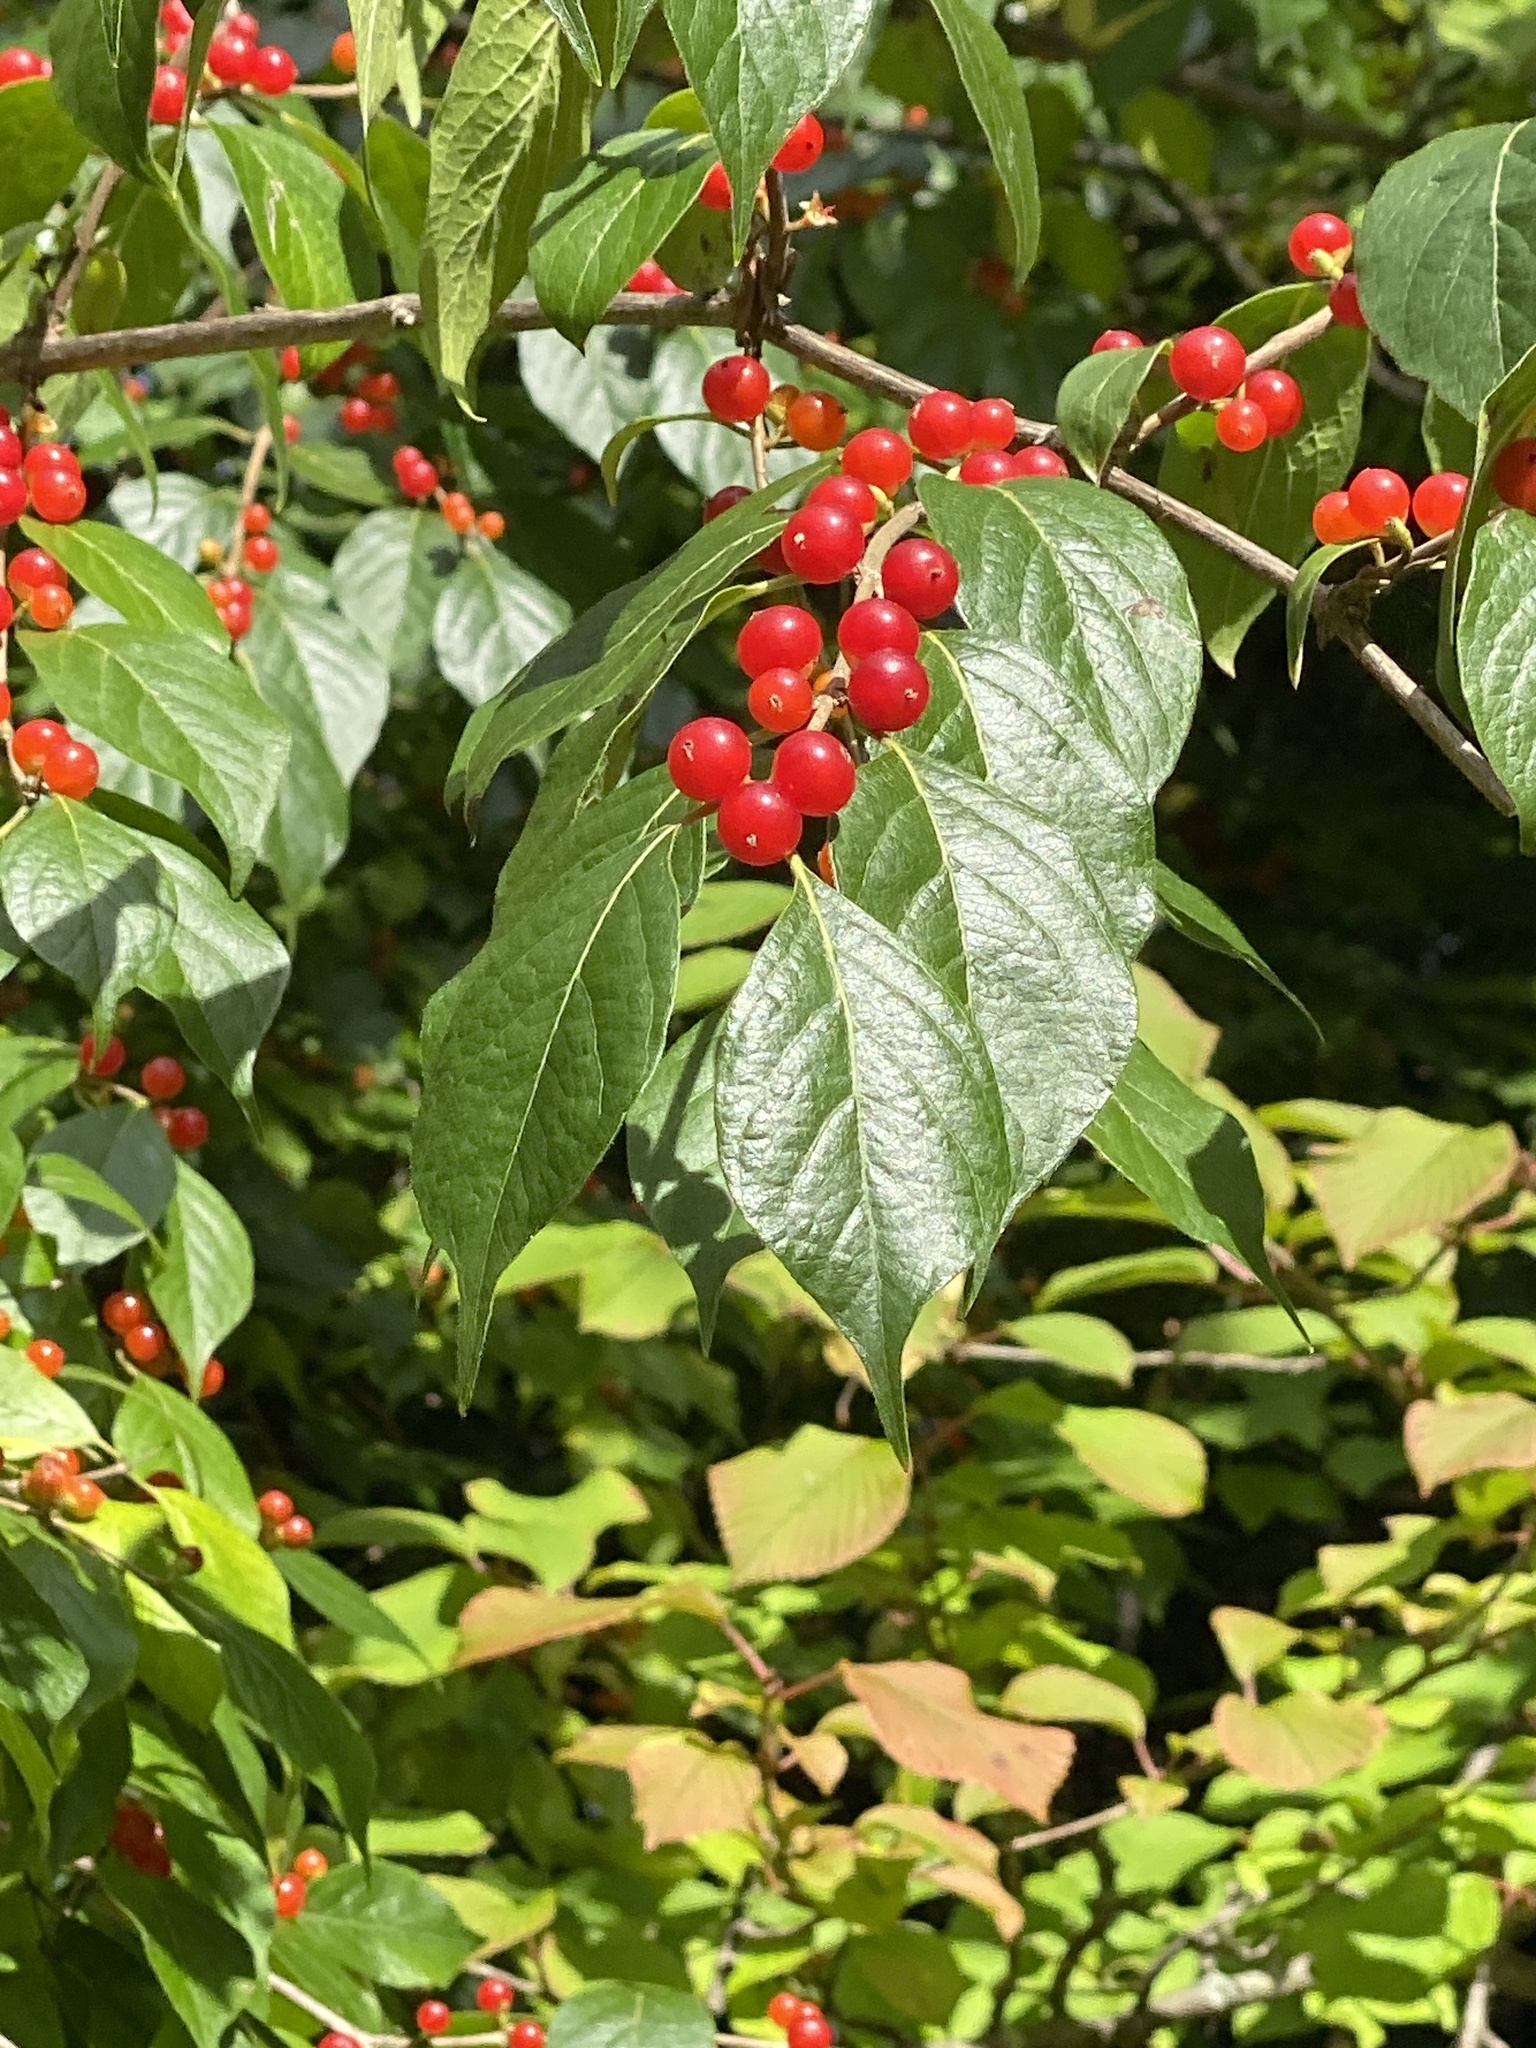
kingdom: Plantae
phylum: Tracheophyta
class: Magnoliopsida
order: Dipsacales
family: Caprifoliaceae
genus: Lonicera
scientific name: Lonicera maackii
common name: Amur honeysuckle
